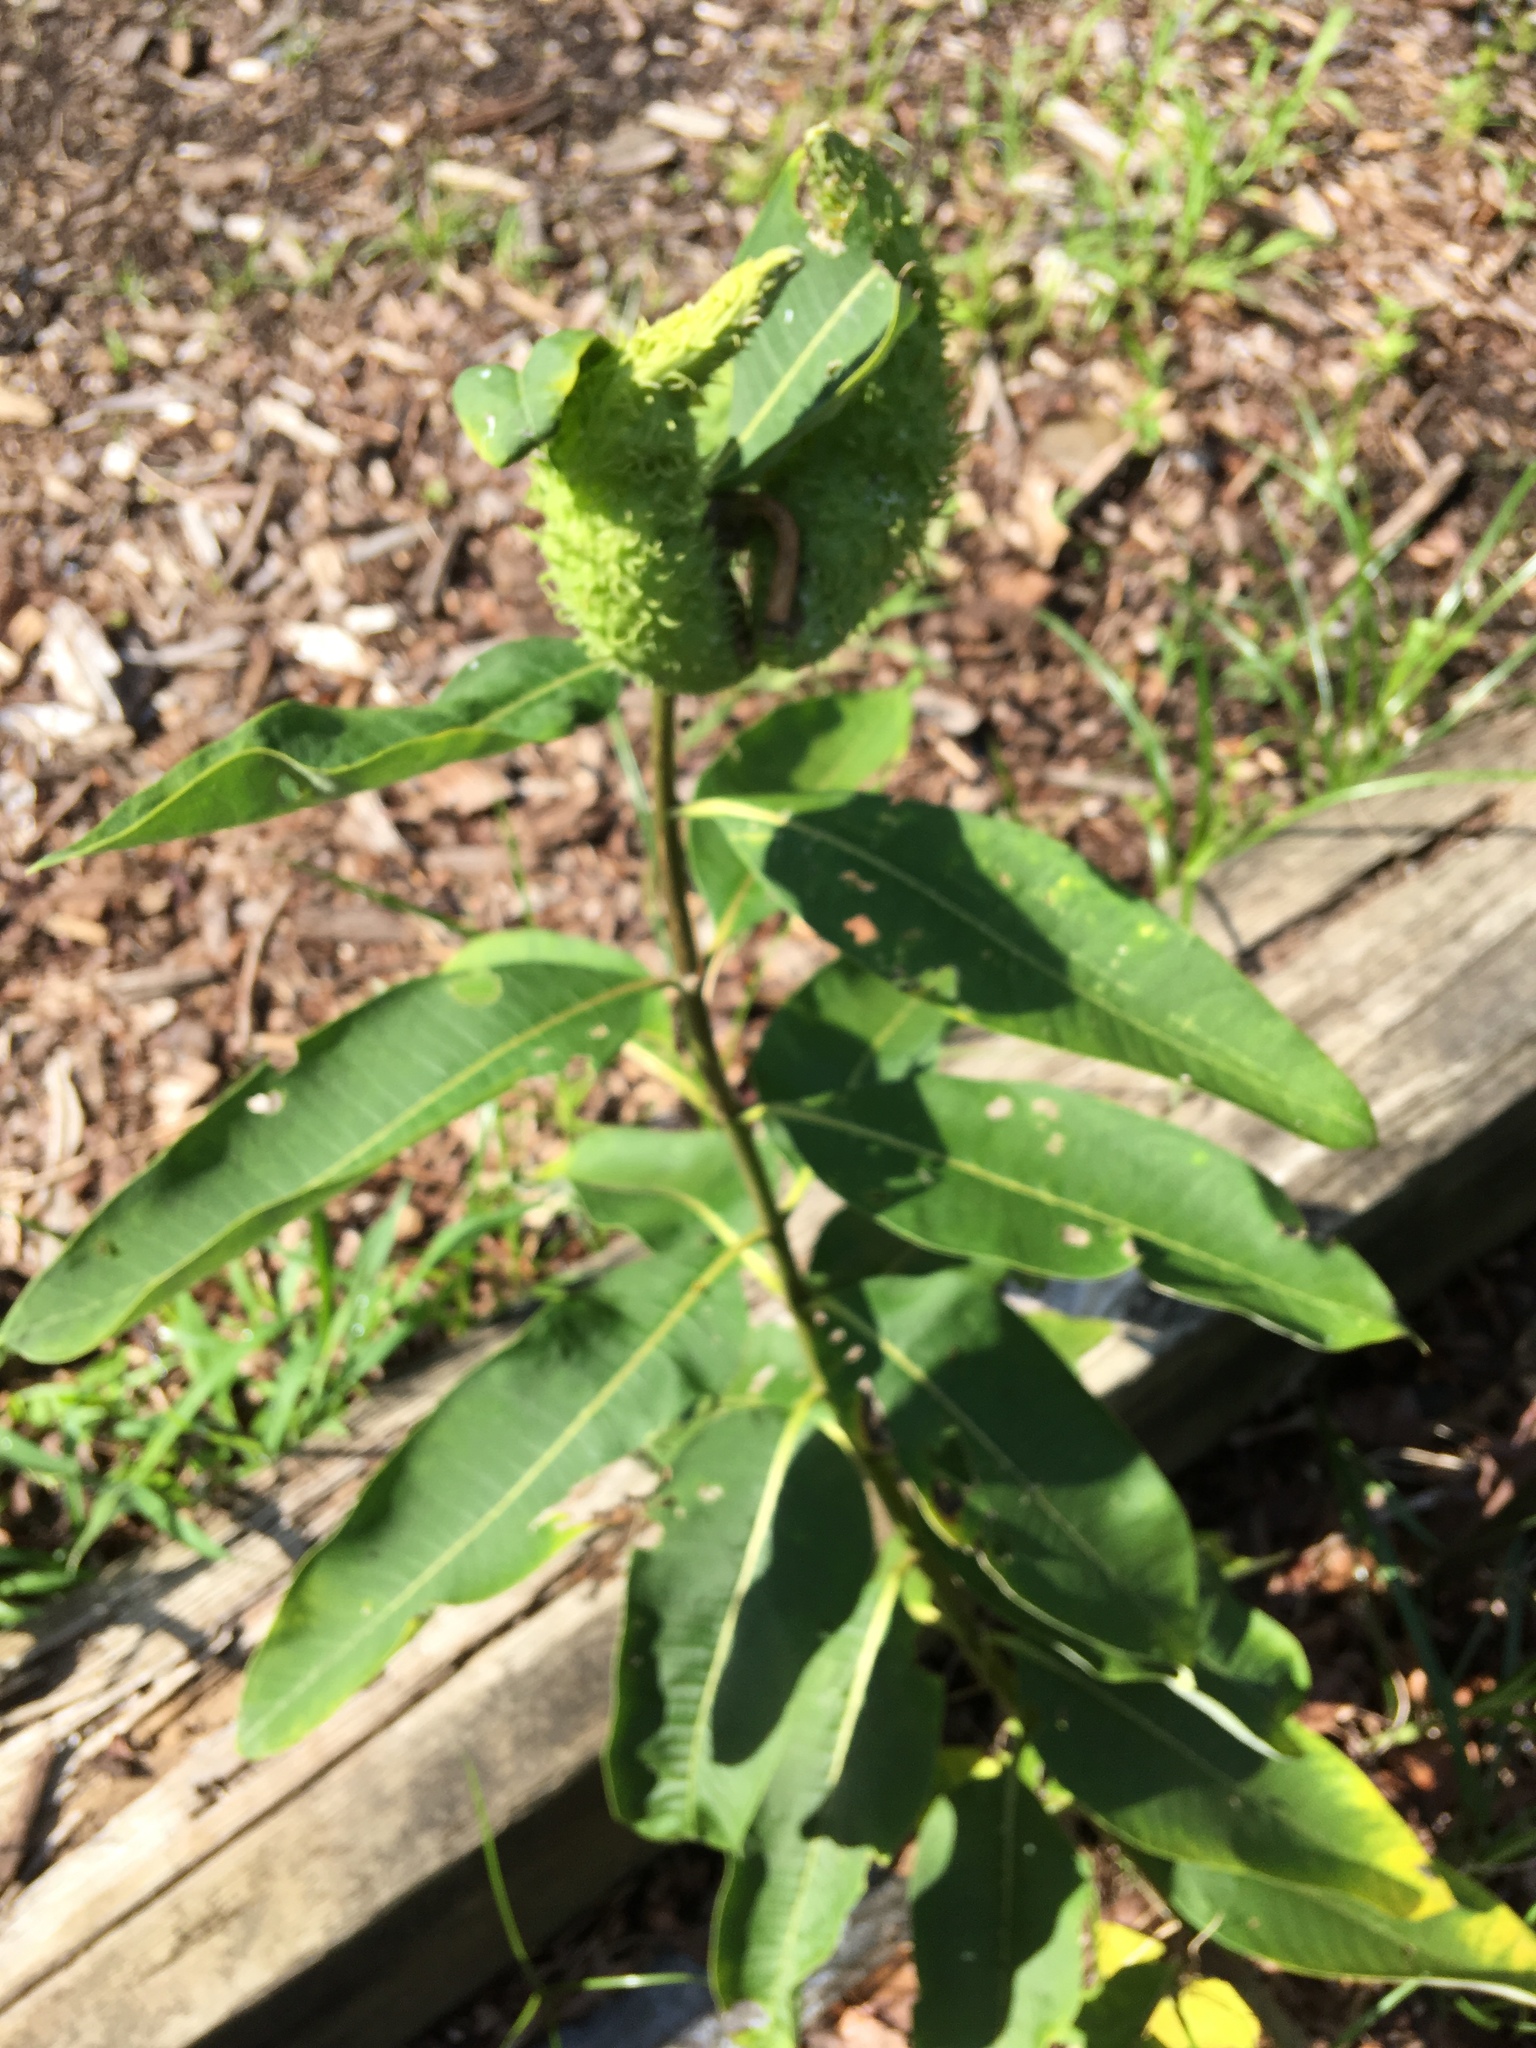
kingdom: Plantae
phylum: Tracheophyta
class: Magnoliopsida
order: Gentianales
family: Apocynaceae
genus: Asclepias
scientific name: Asclepias syriaca
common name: Common milkweed
